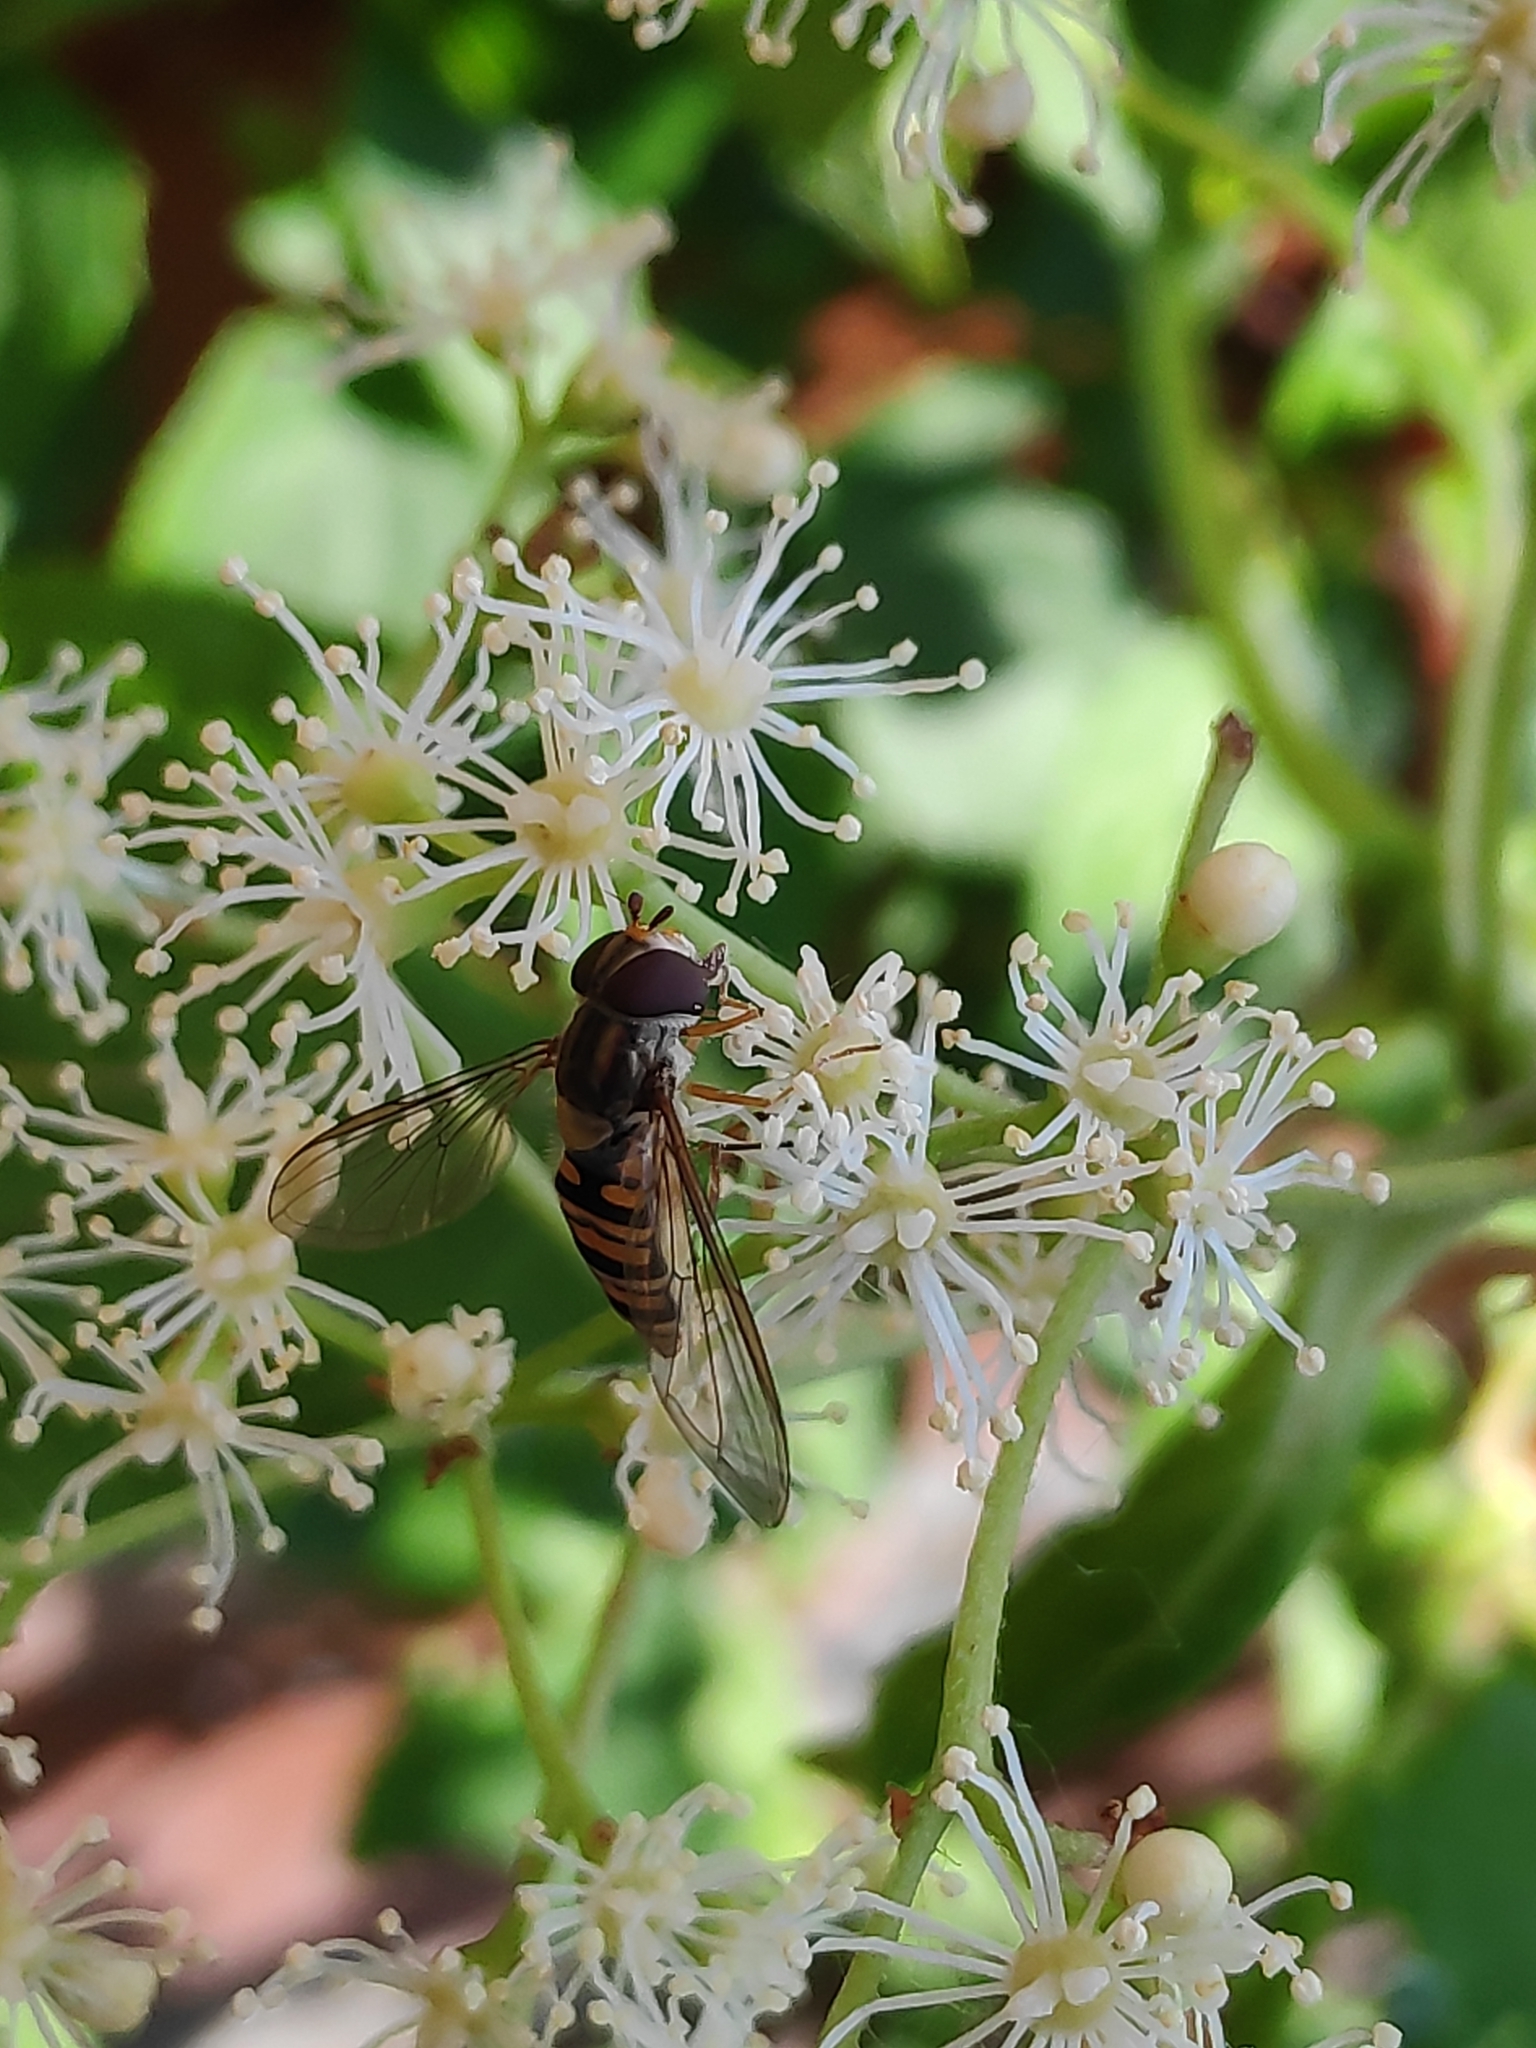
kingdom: Animalia
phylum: Arthropoda
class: Insecta
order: Diptera
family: Syrphidae
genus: Episyrphus
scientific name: Episyrphus balteatus
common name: Marmalade hoverfly
